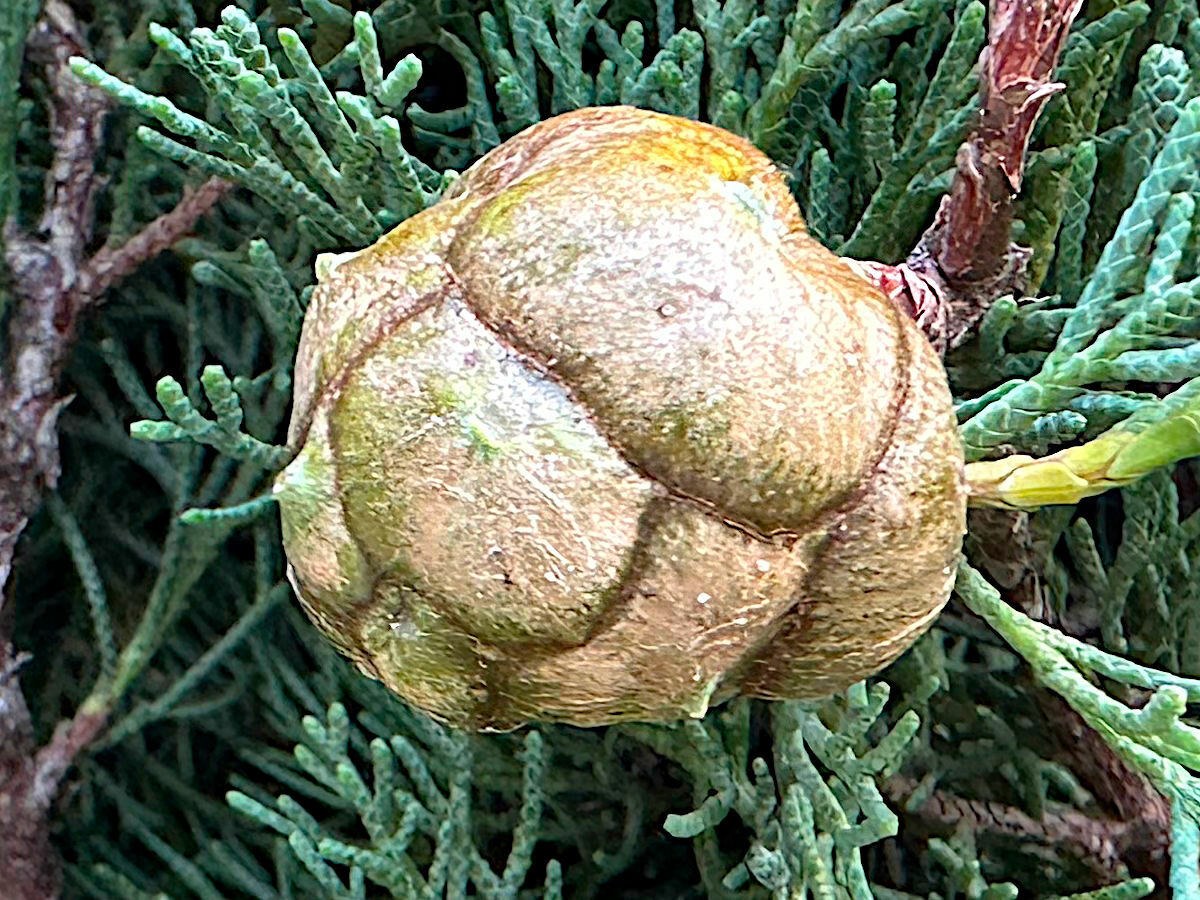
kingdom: Plantae
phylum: Tracheophyta
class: Pinopsida
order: Pinales
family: Cupressaceae
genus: Cupressus
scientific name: Cupressus sempervirens
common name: Italian cypress
